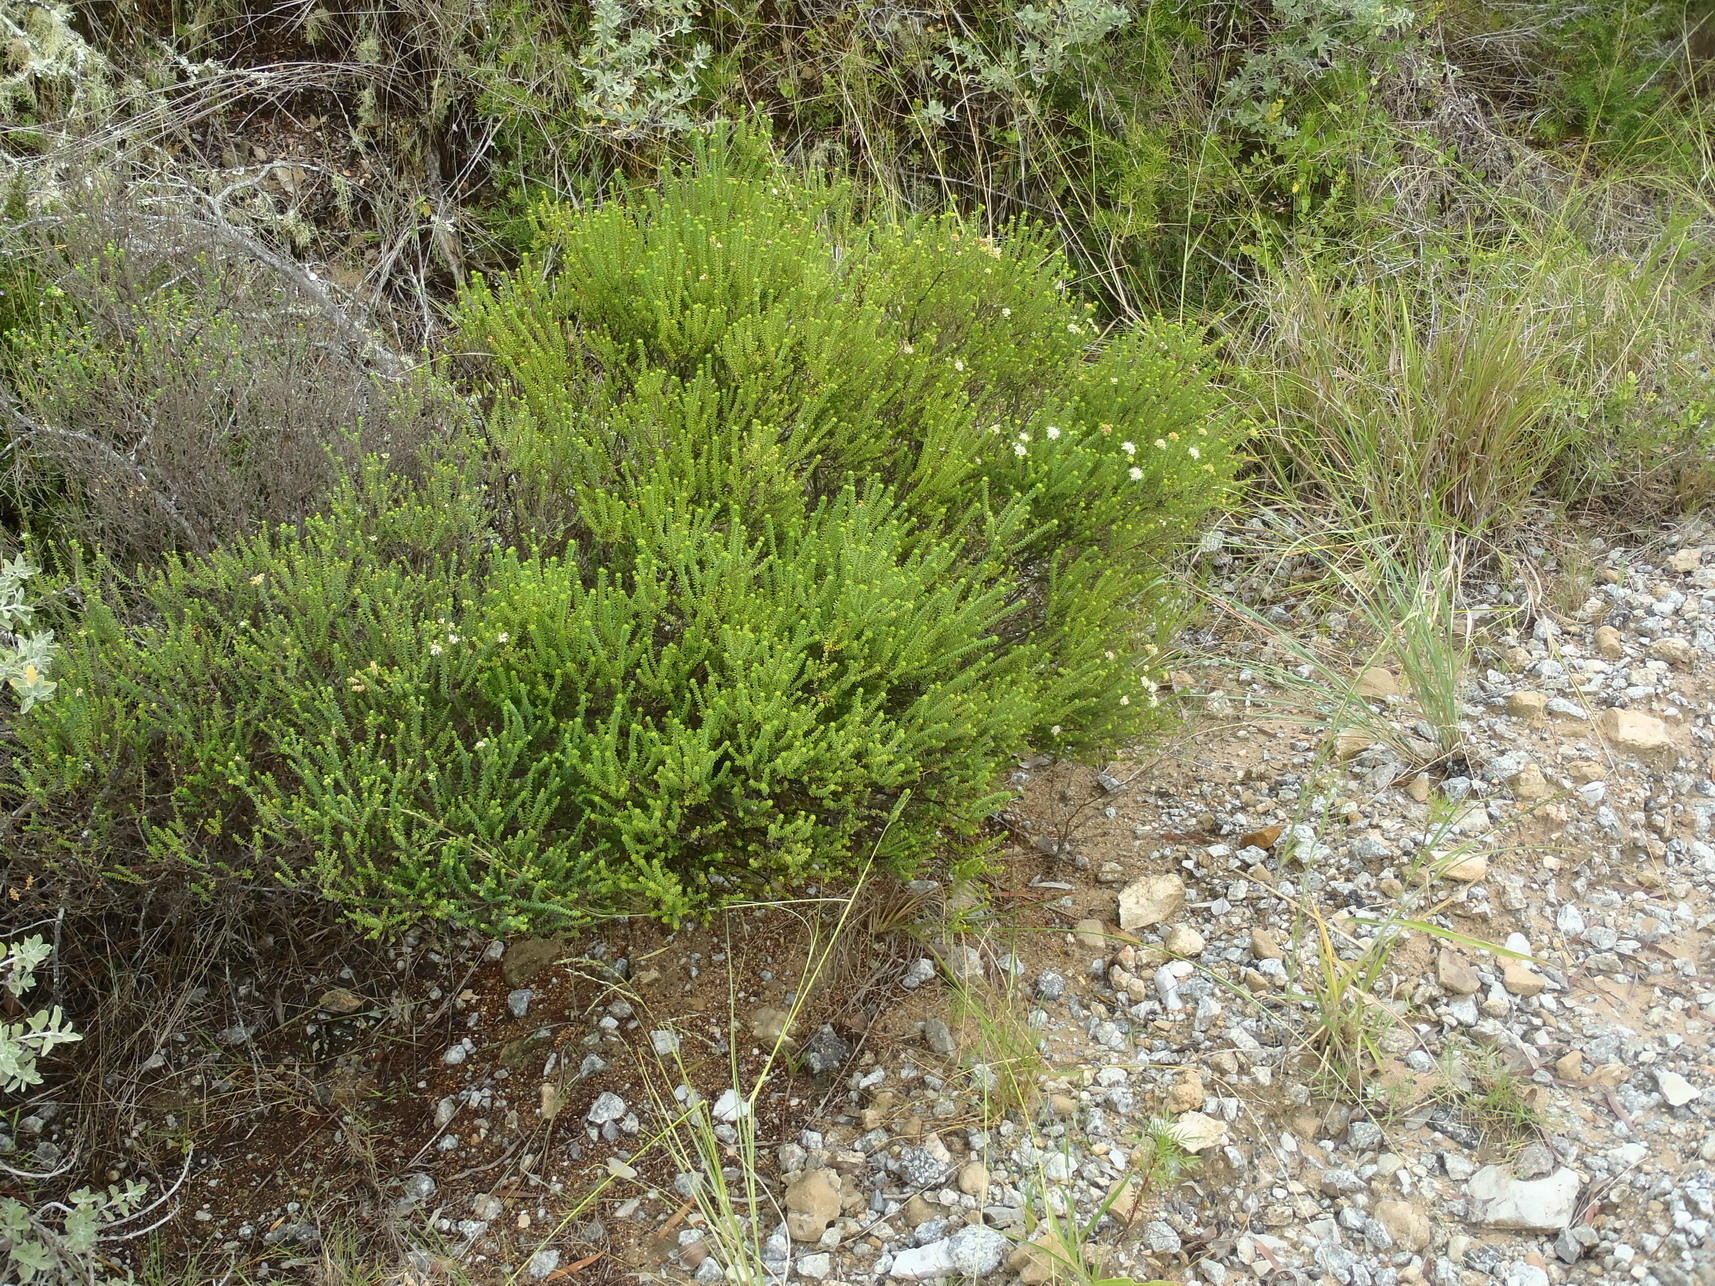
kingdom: Plantae
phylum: Tracheophyta
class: Magnoliopsida
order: Sapindales
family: Rutaceae
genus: Agathosma
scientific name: Agathosma apiculata
